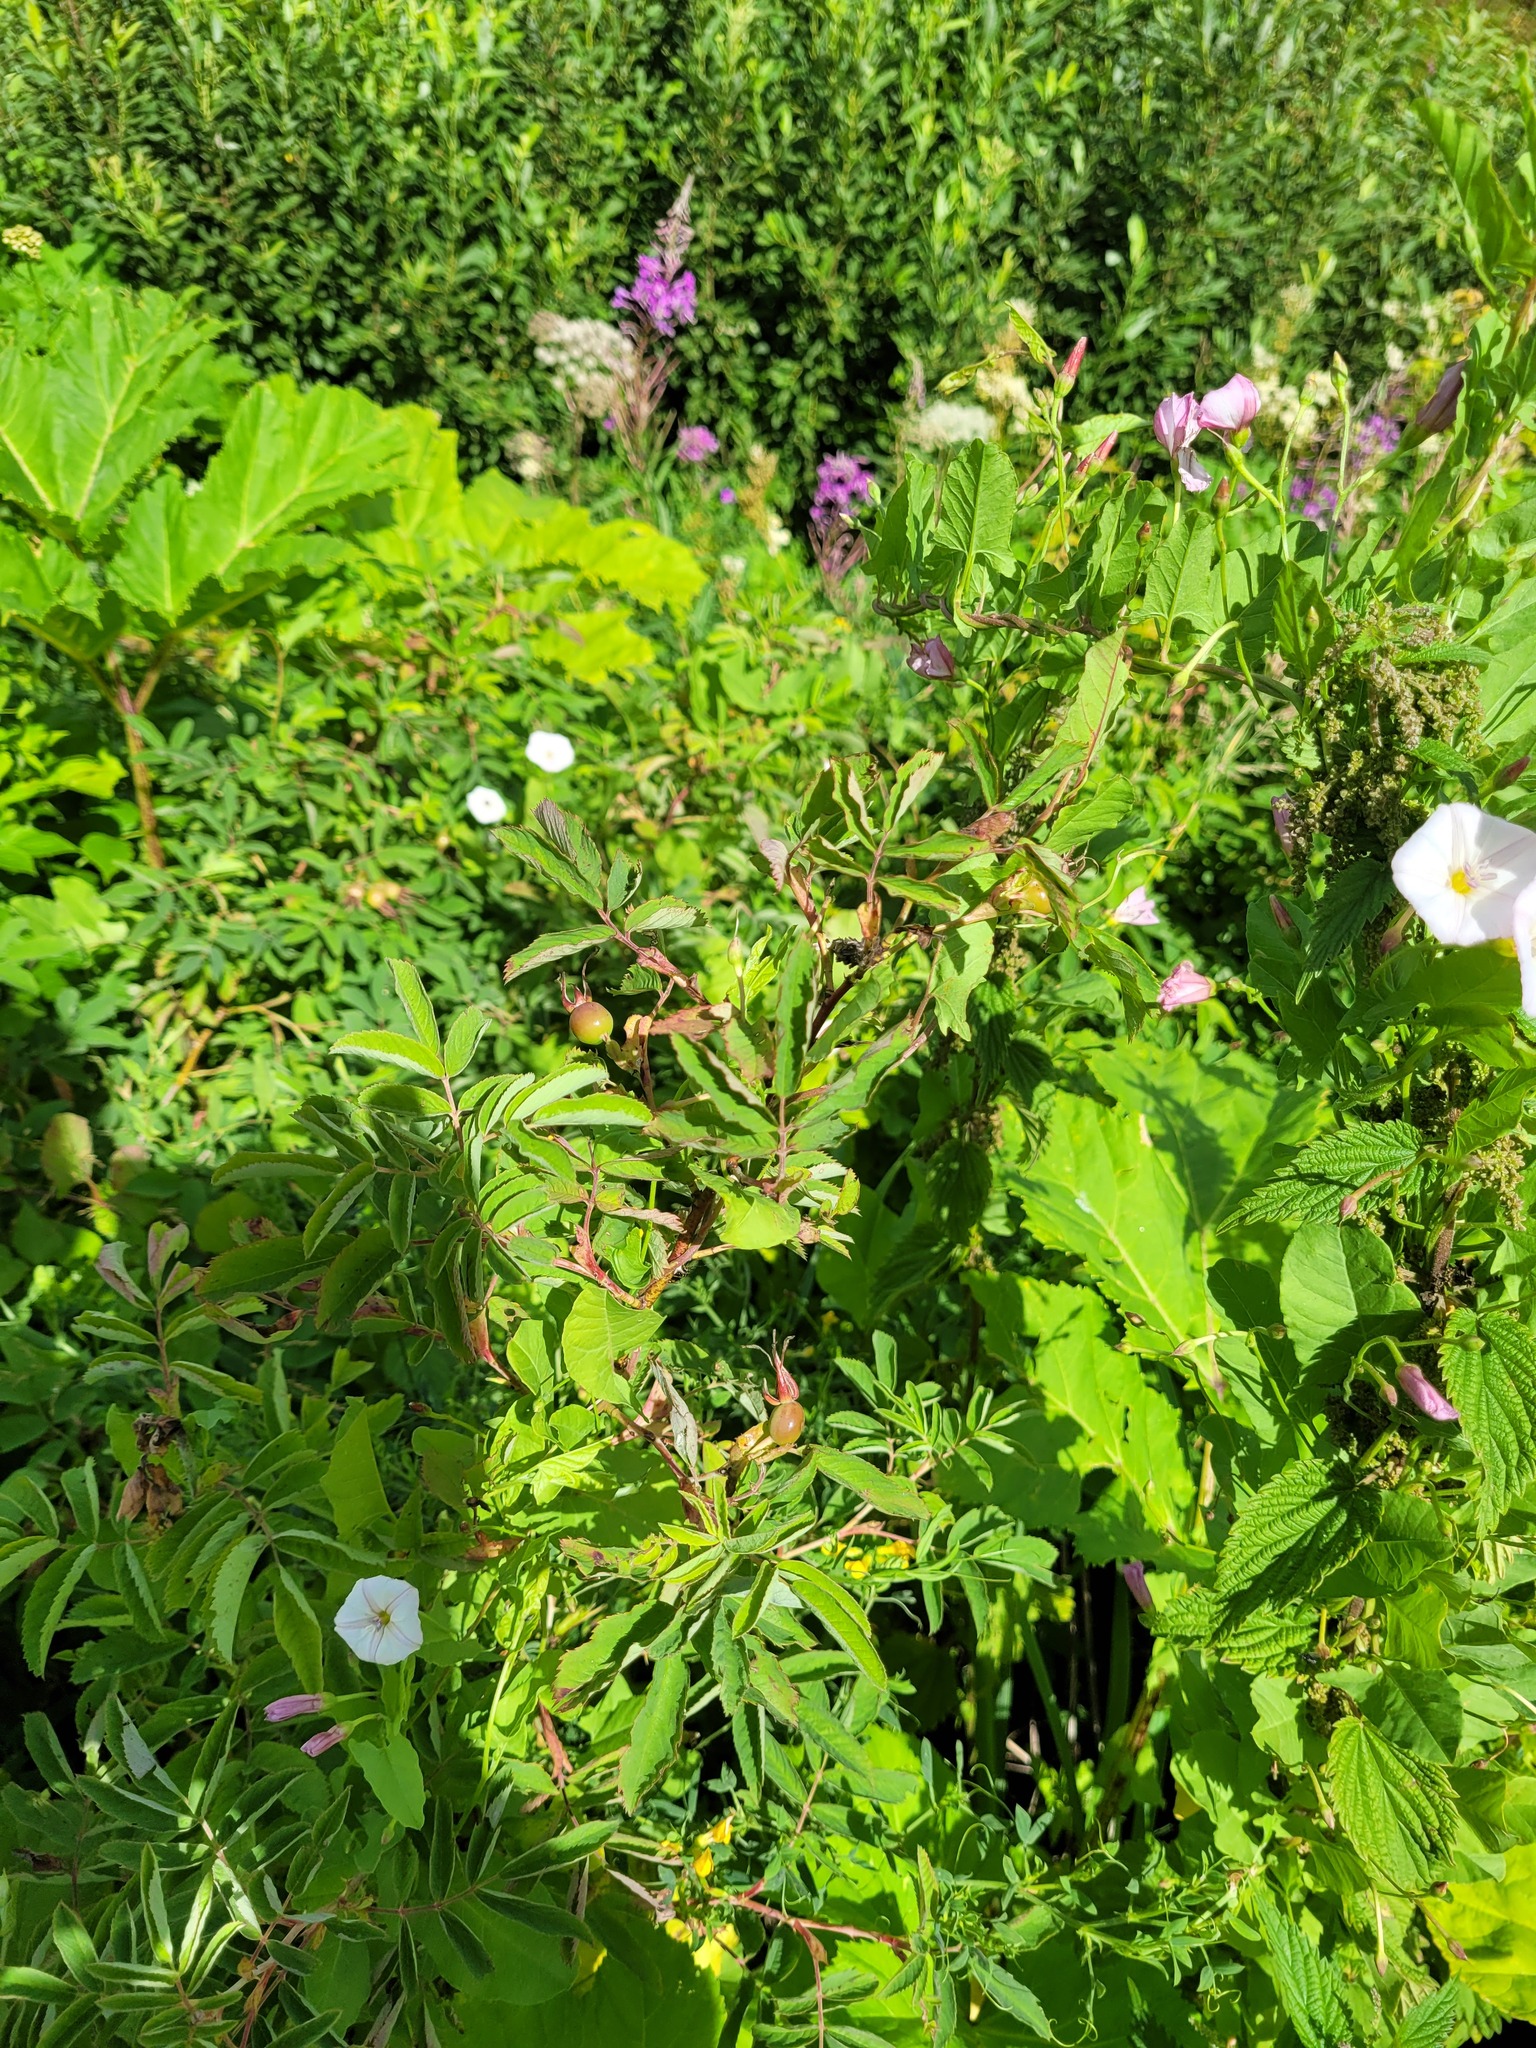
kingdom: Plantae
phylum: Tracheophyta
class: Magnoliopsida
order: Rosales
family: Rosaceae
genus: Rosa
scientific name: Rosa majalis
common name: Cinnamon rose
